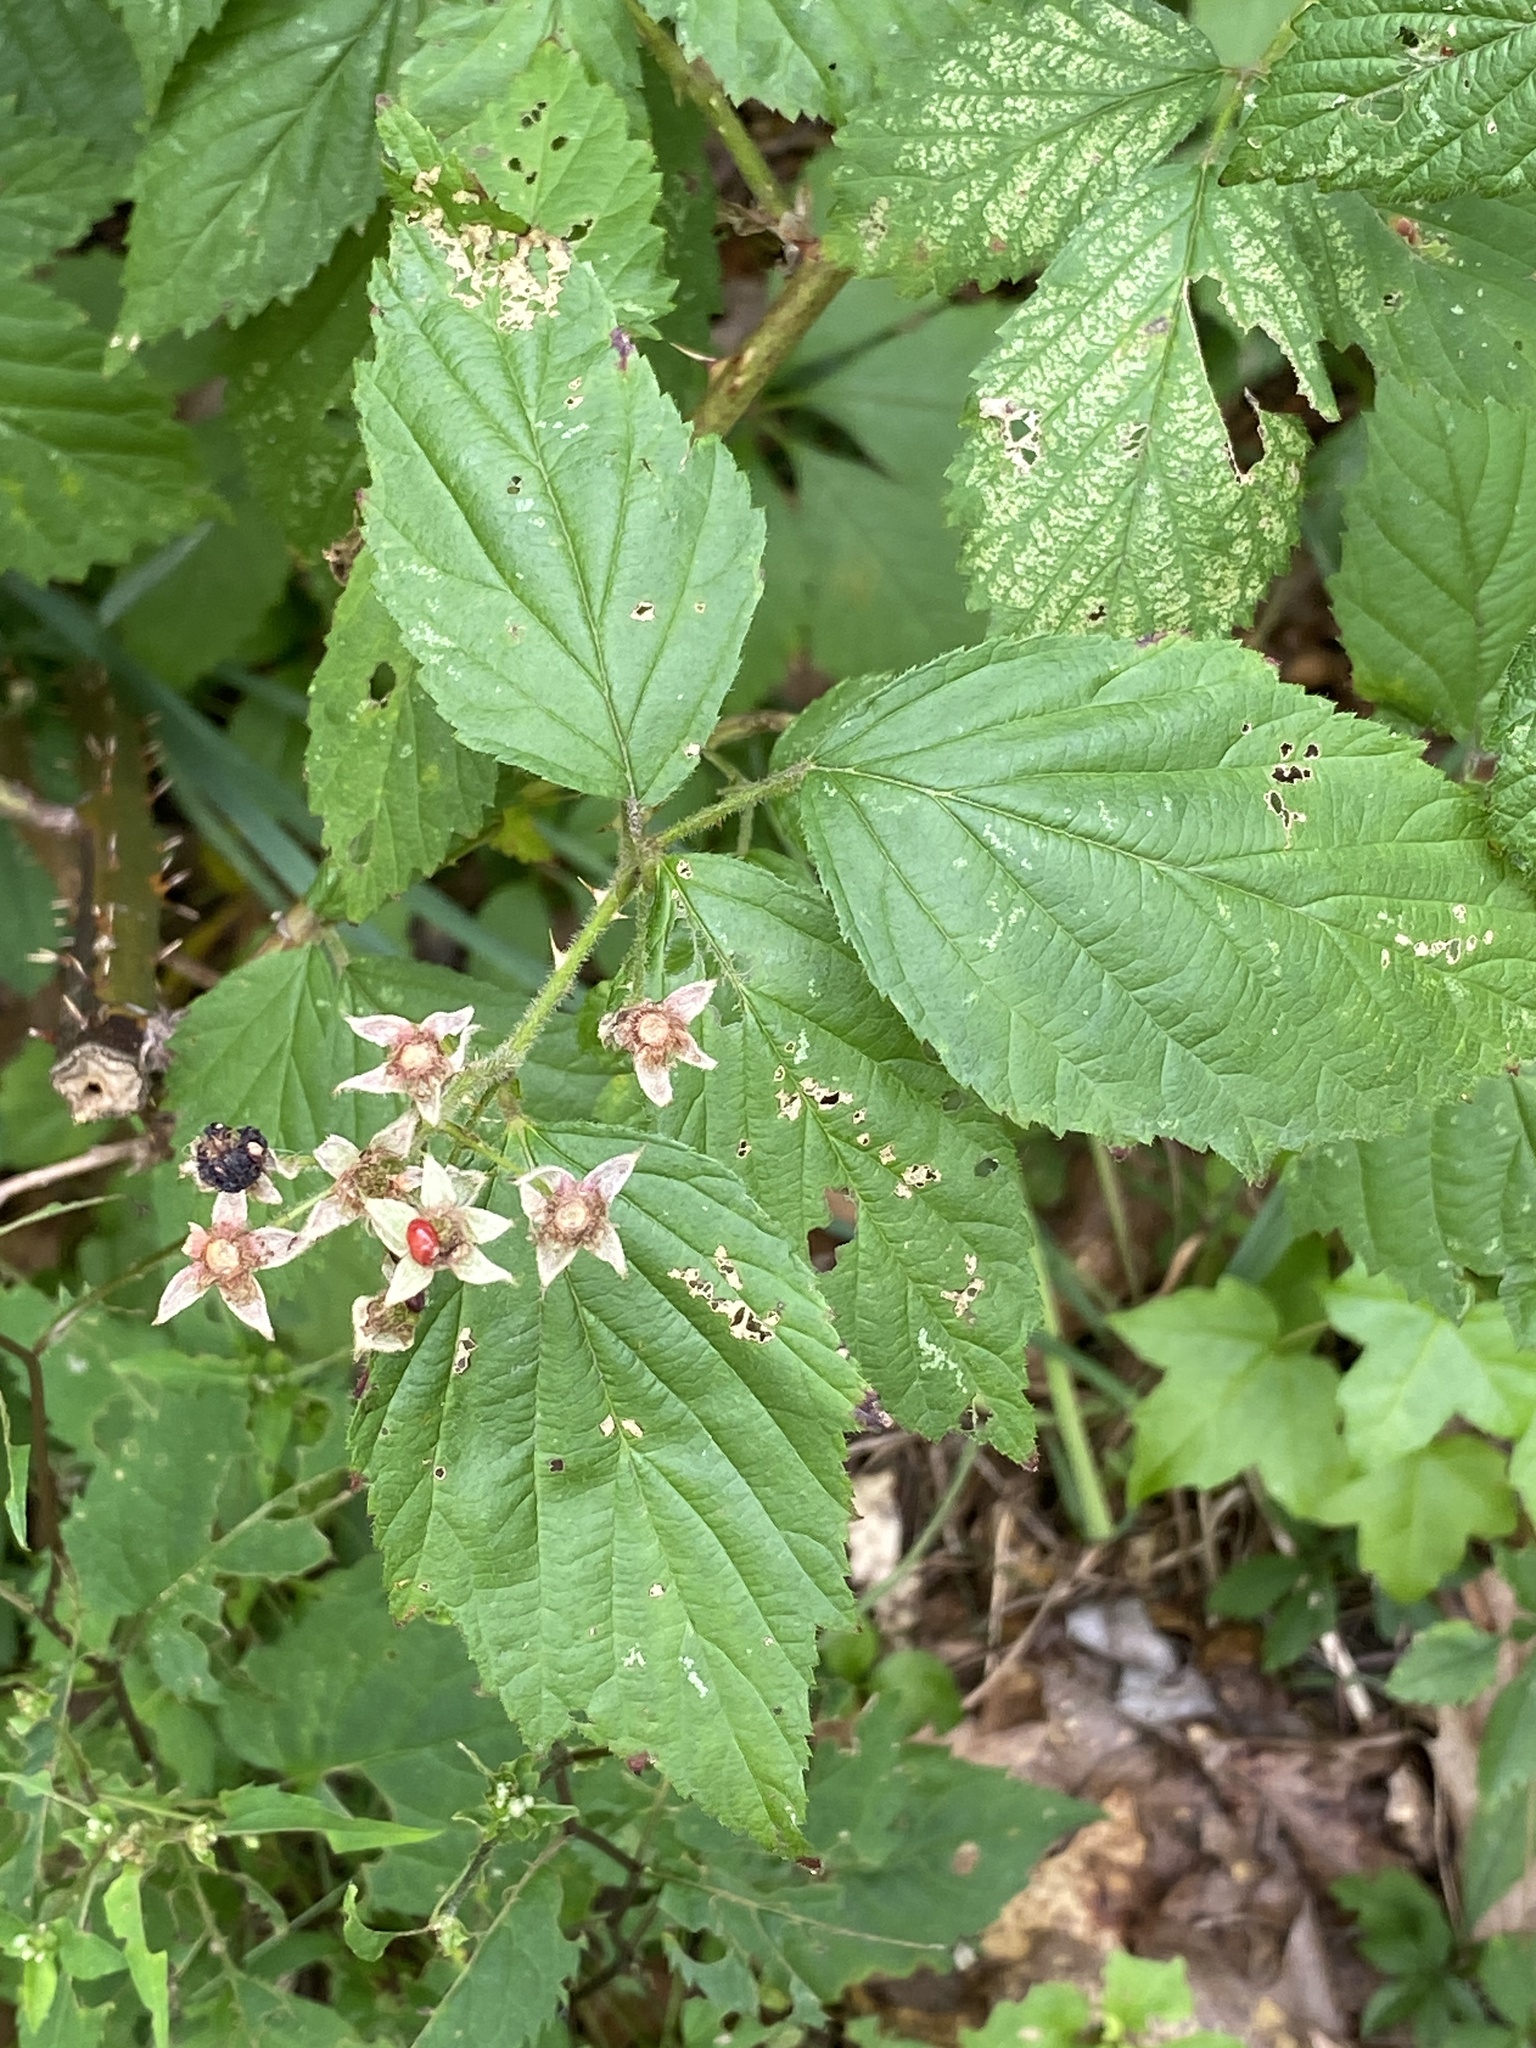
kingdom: Plantae
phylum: Tracheophyta
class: Magnoliopsida
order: Rosales
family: Rosaceae
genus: Rubus
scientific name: Rubus allegheniensis
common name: Allegheny blackberry
